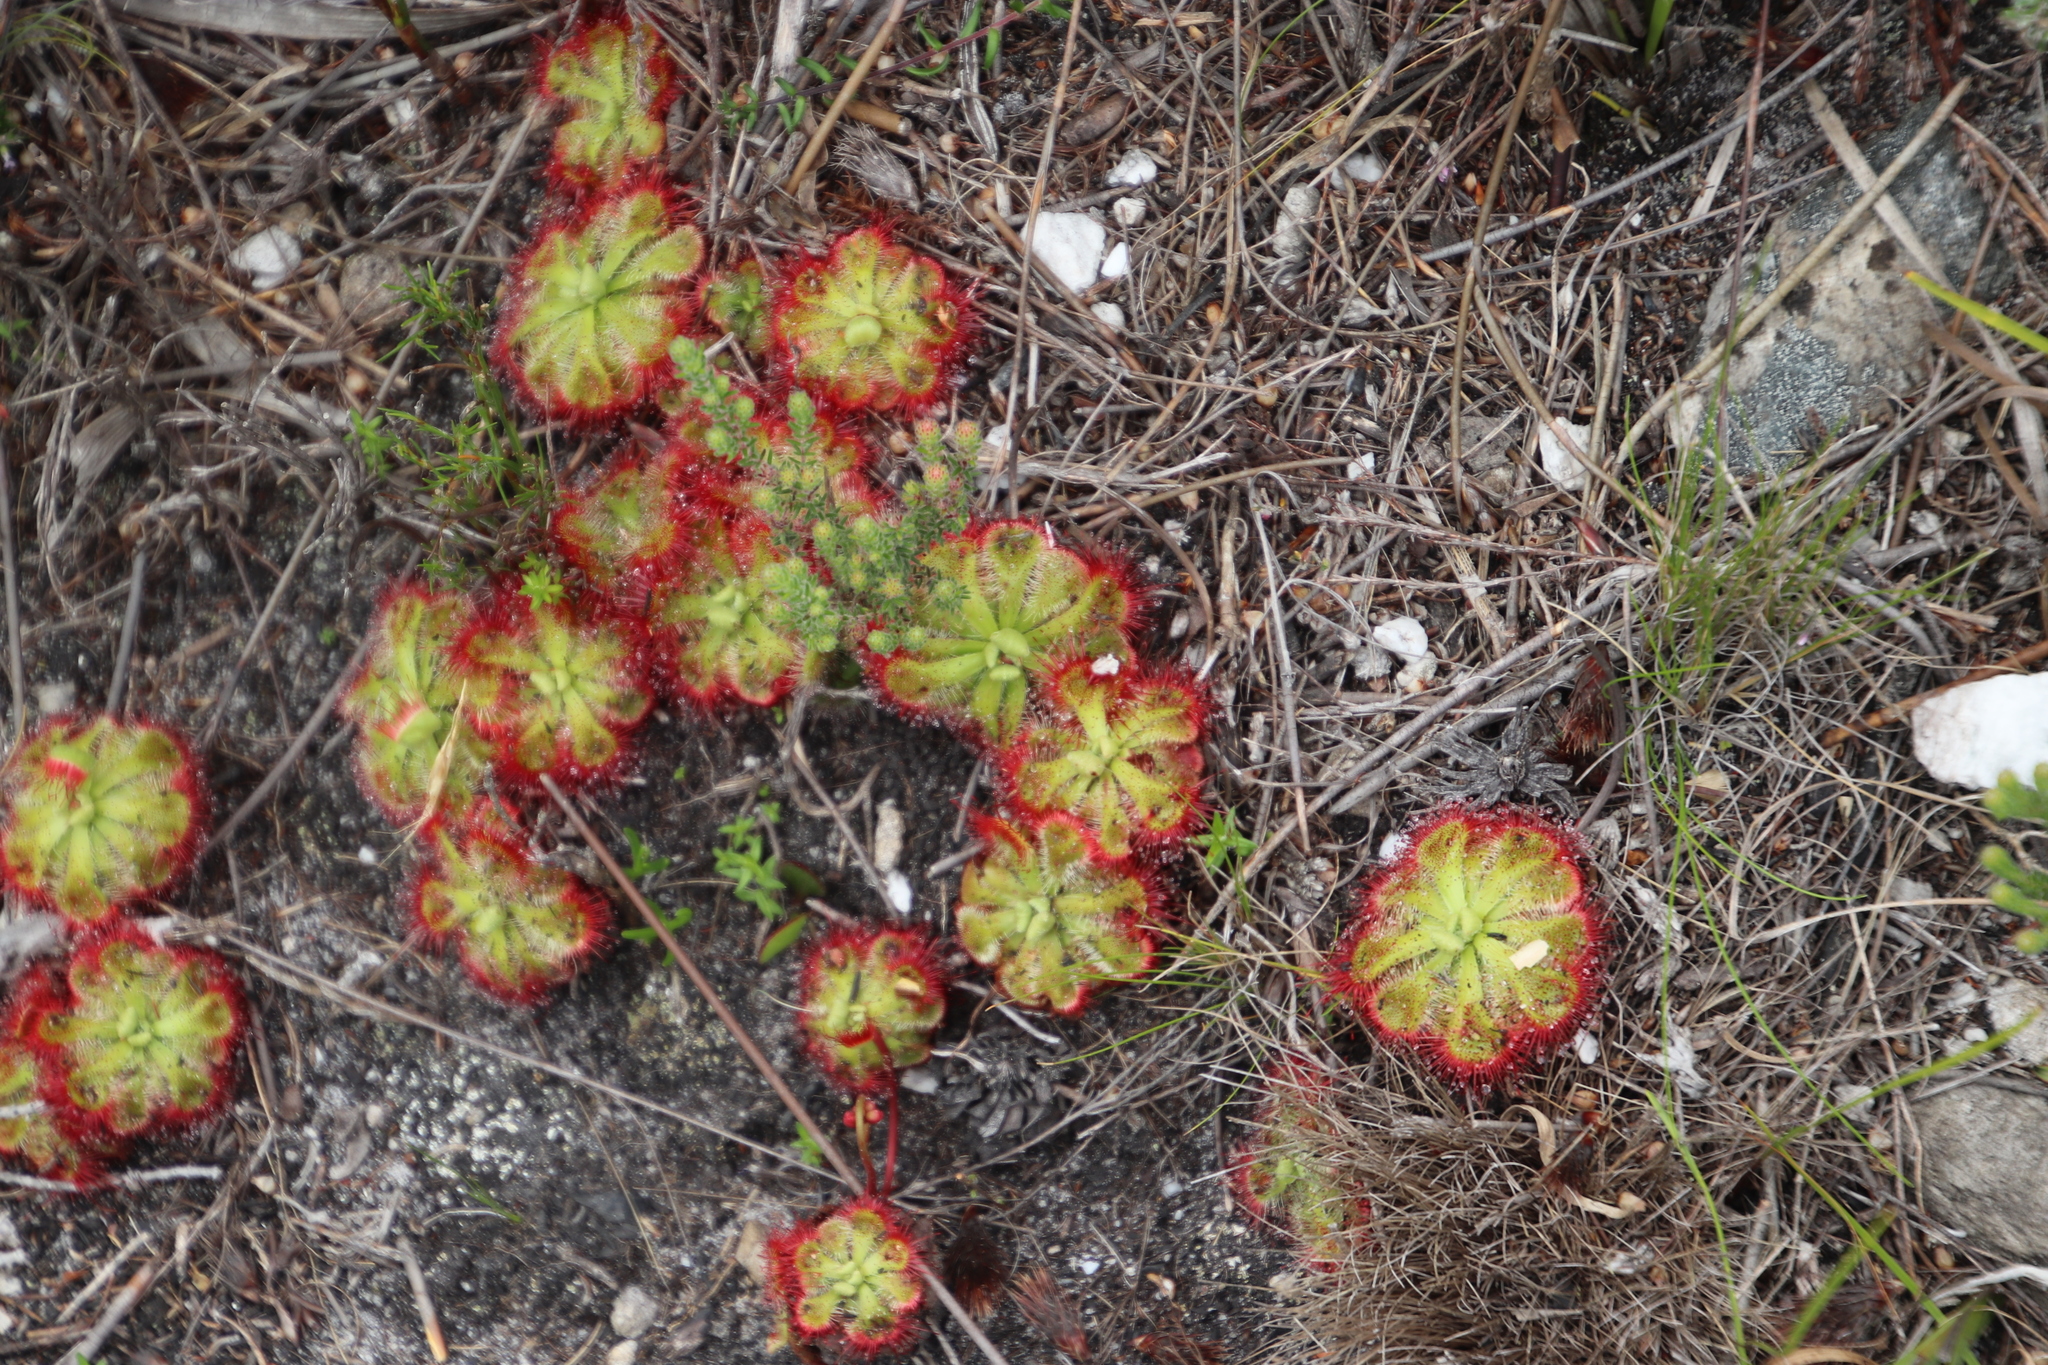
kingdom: Plantae
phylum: Tracheophyta
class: Magnoliopsida
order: Caryophyllales
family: Droseraceae
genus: Drosera
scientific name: Drosera xerophila
